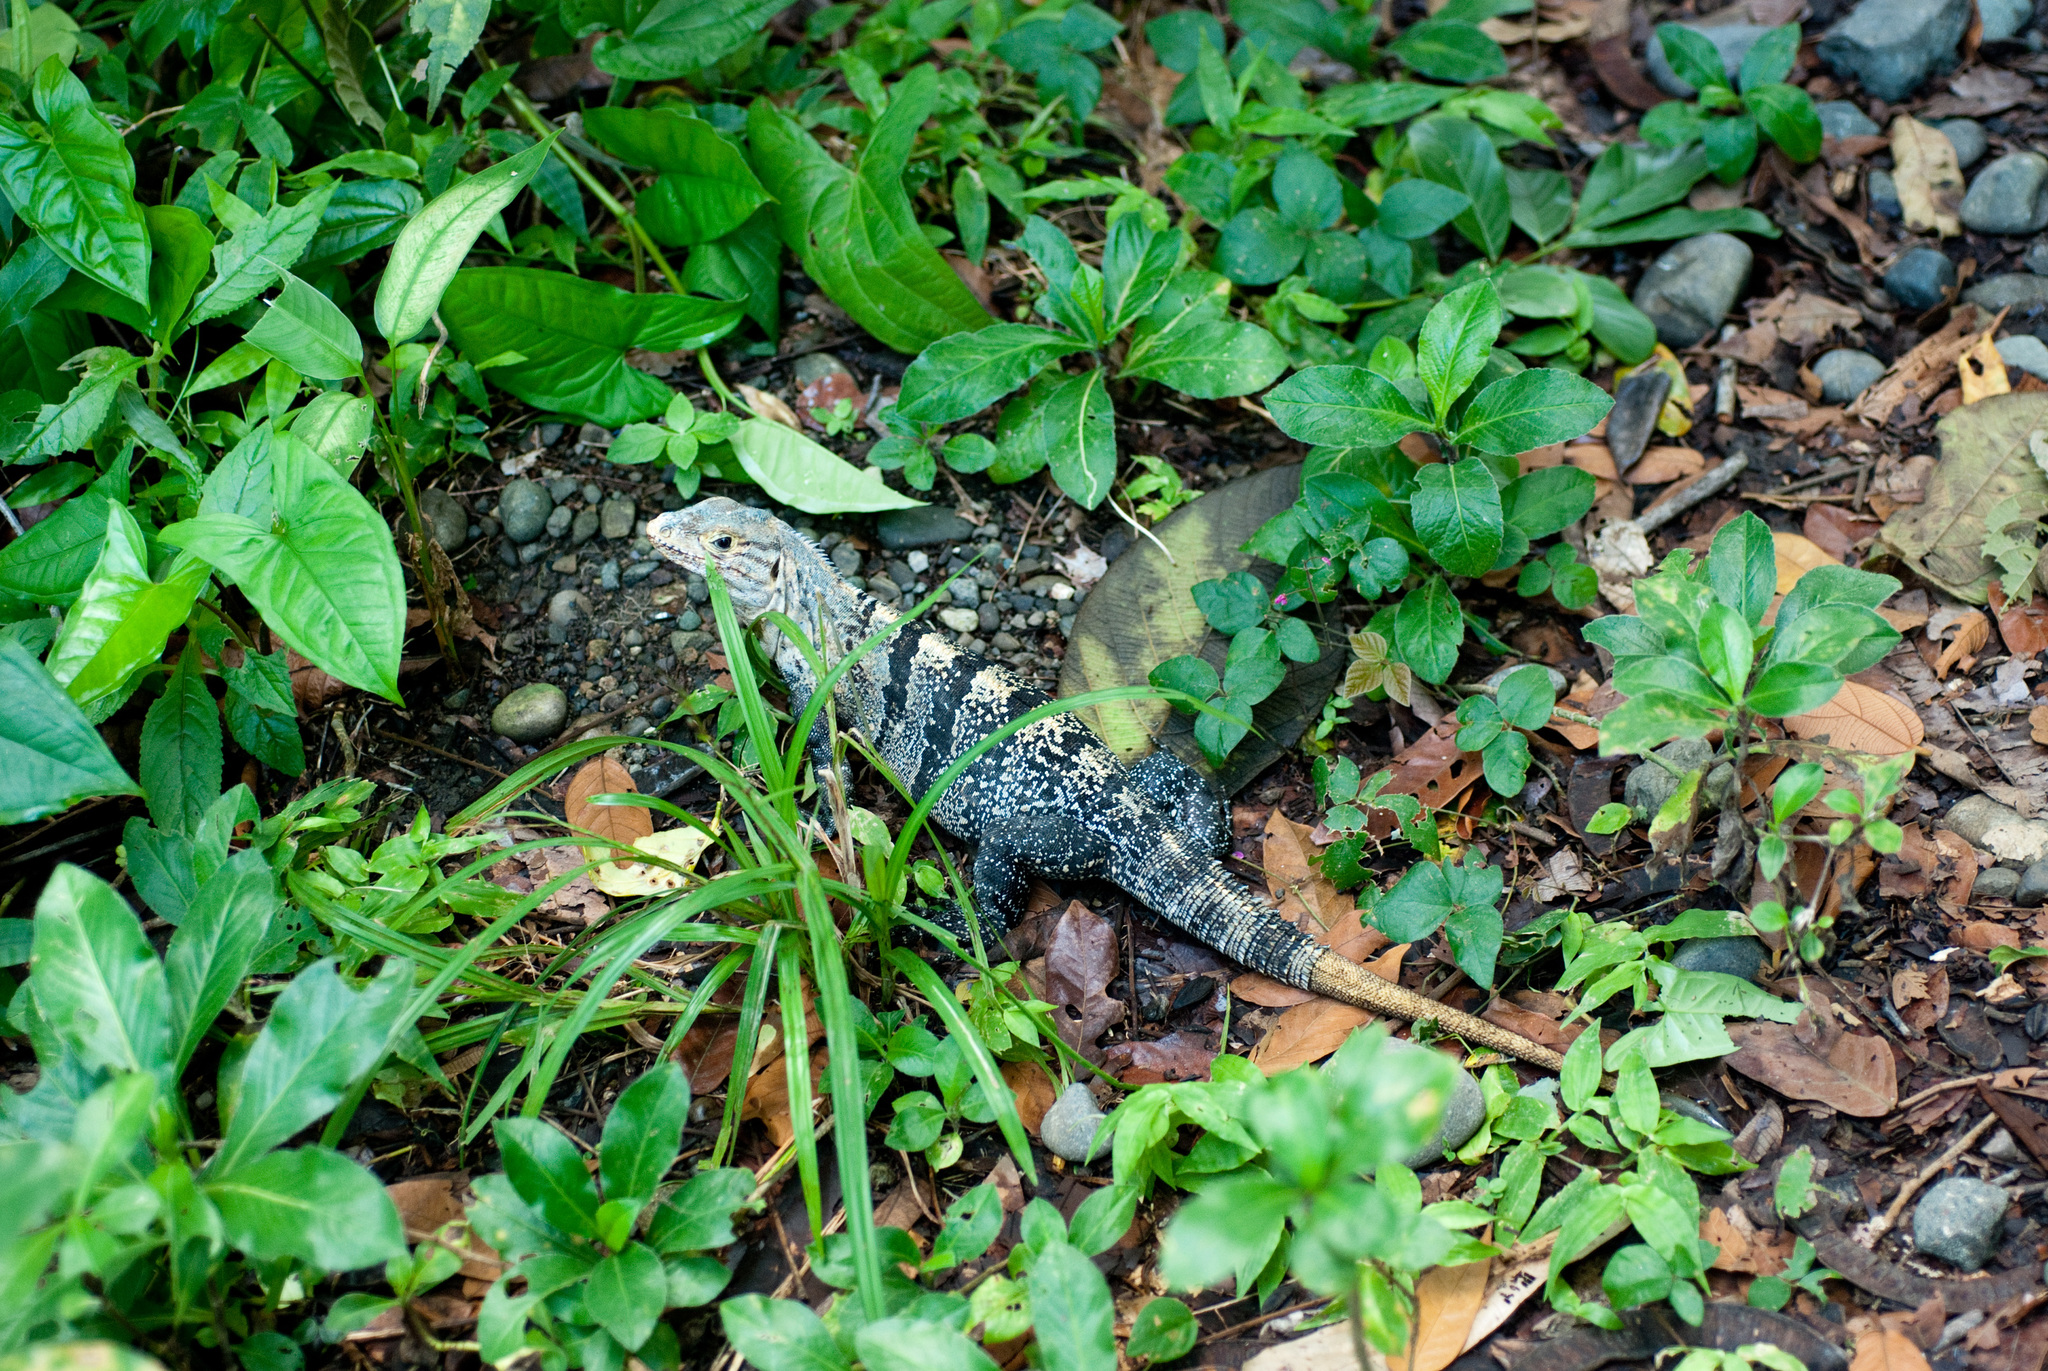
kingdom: Animalia
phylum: Chordata
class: Squamata
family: Iguanidae
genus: Ctenosaura
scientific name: Ctenosaura similis
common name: Black spiny-tailed iguana
